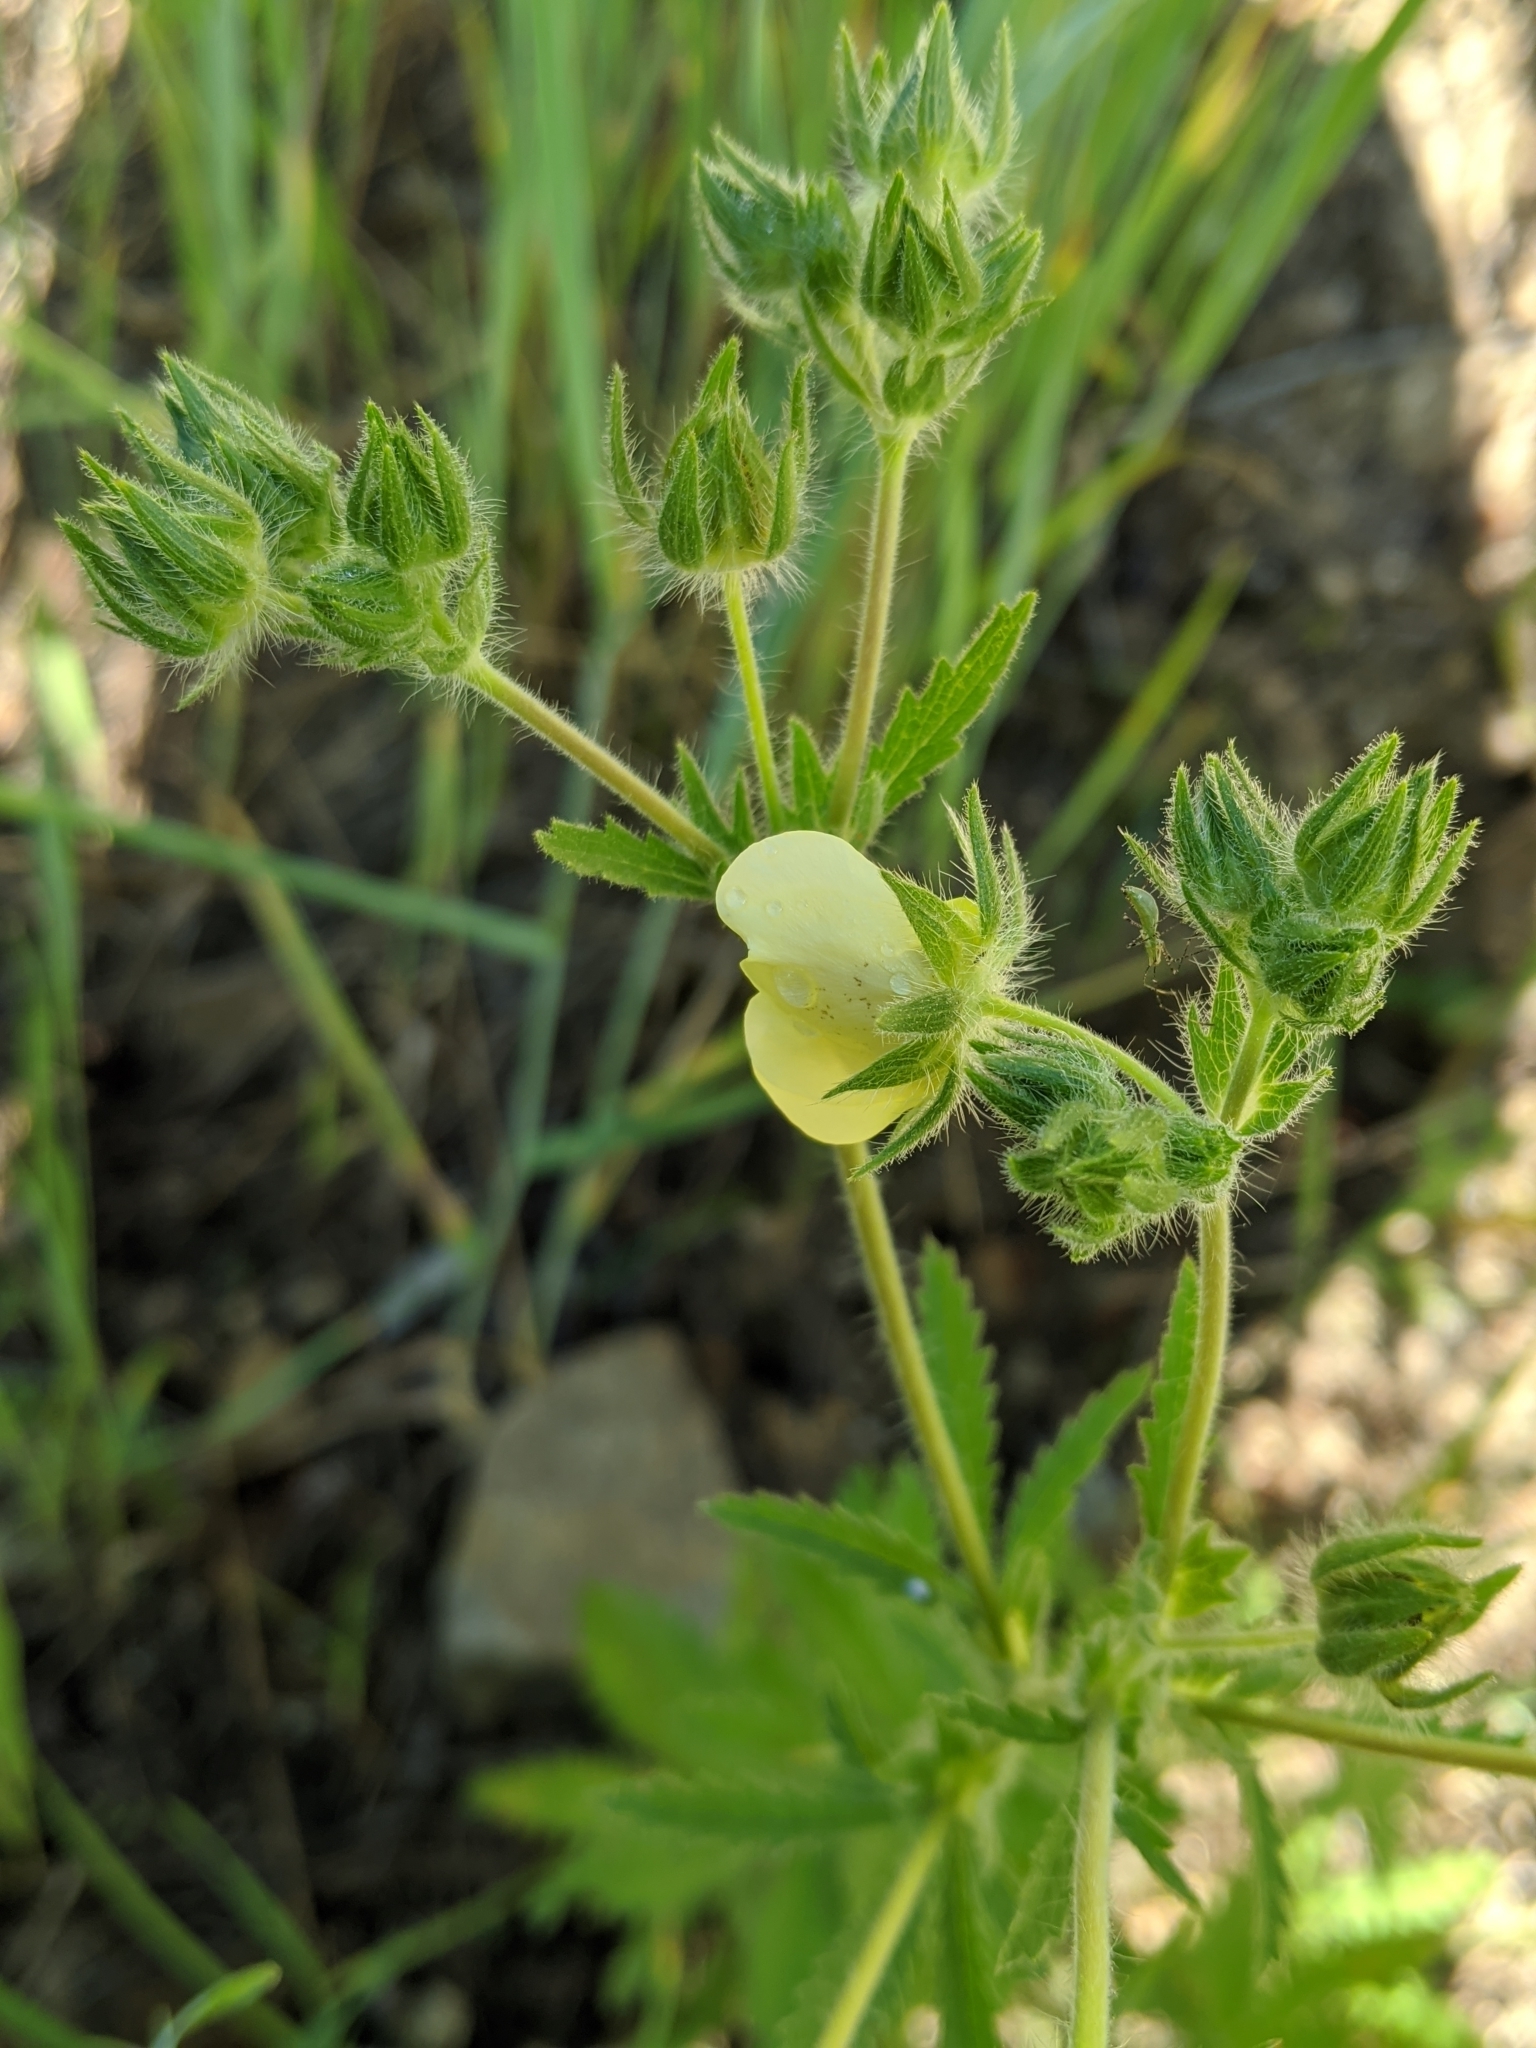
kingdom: Plantae
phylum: Tracheophyta
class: Magnoliopsida
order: Rosales
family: Rosaceae
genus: Potentilla
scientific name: Potentilla recta
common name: Sulphur cinquefoil
